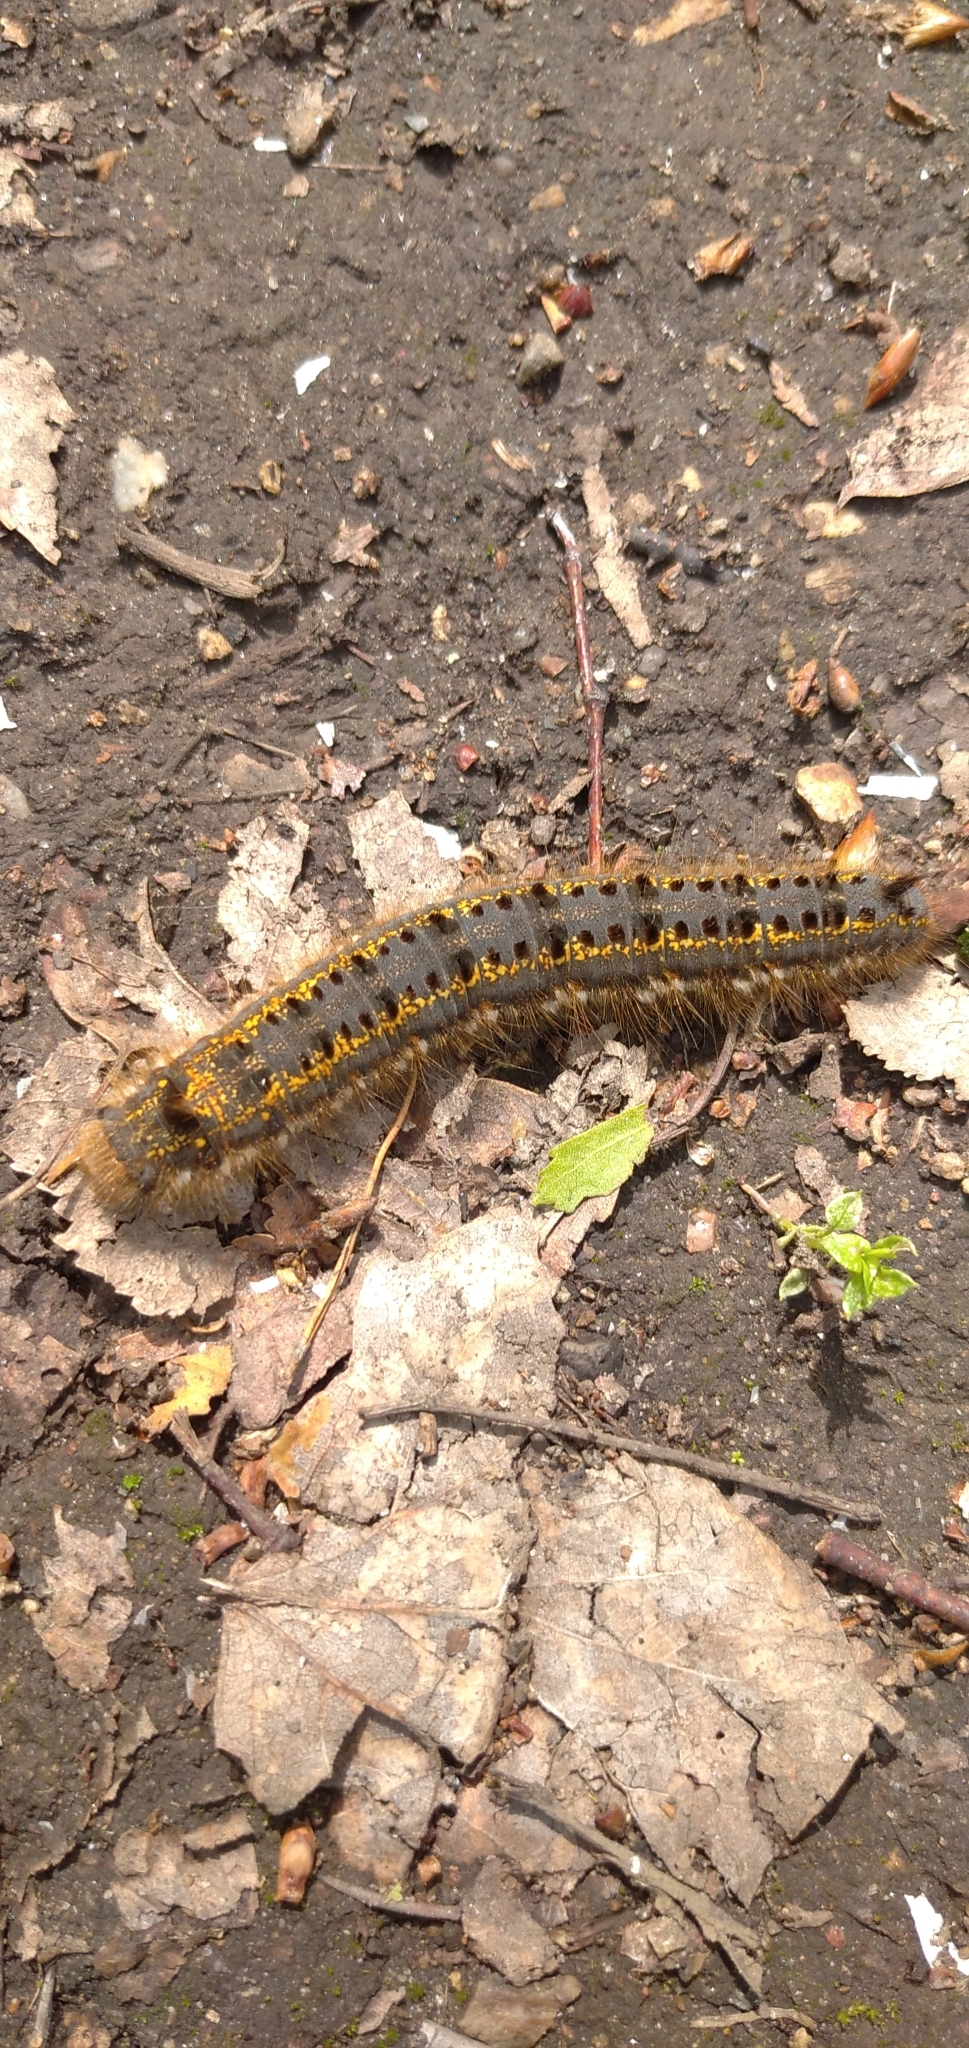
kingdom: Animalia
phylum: Arthropoda
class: Insecta
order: Lepidoptera
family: Lasiocampidae
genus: Euthrix
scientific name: Euthrix potatoria
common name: Drinker
